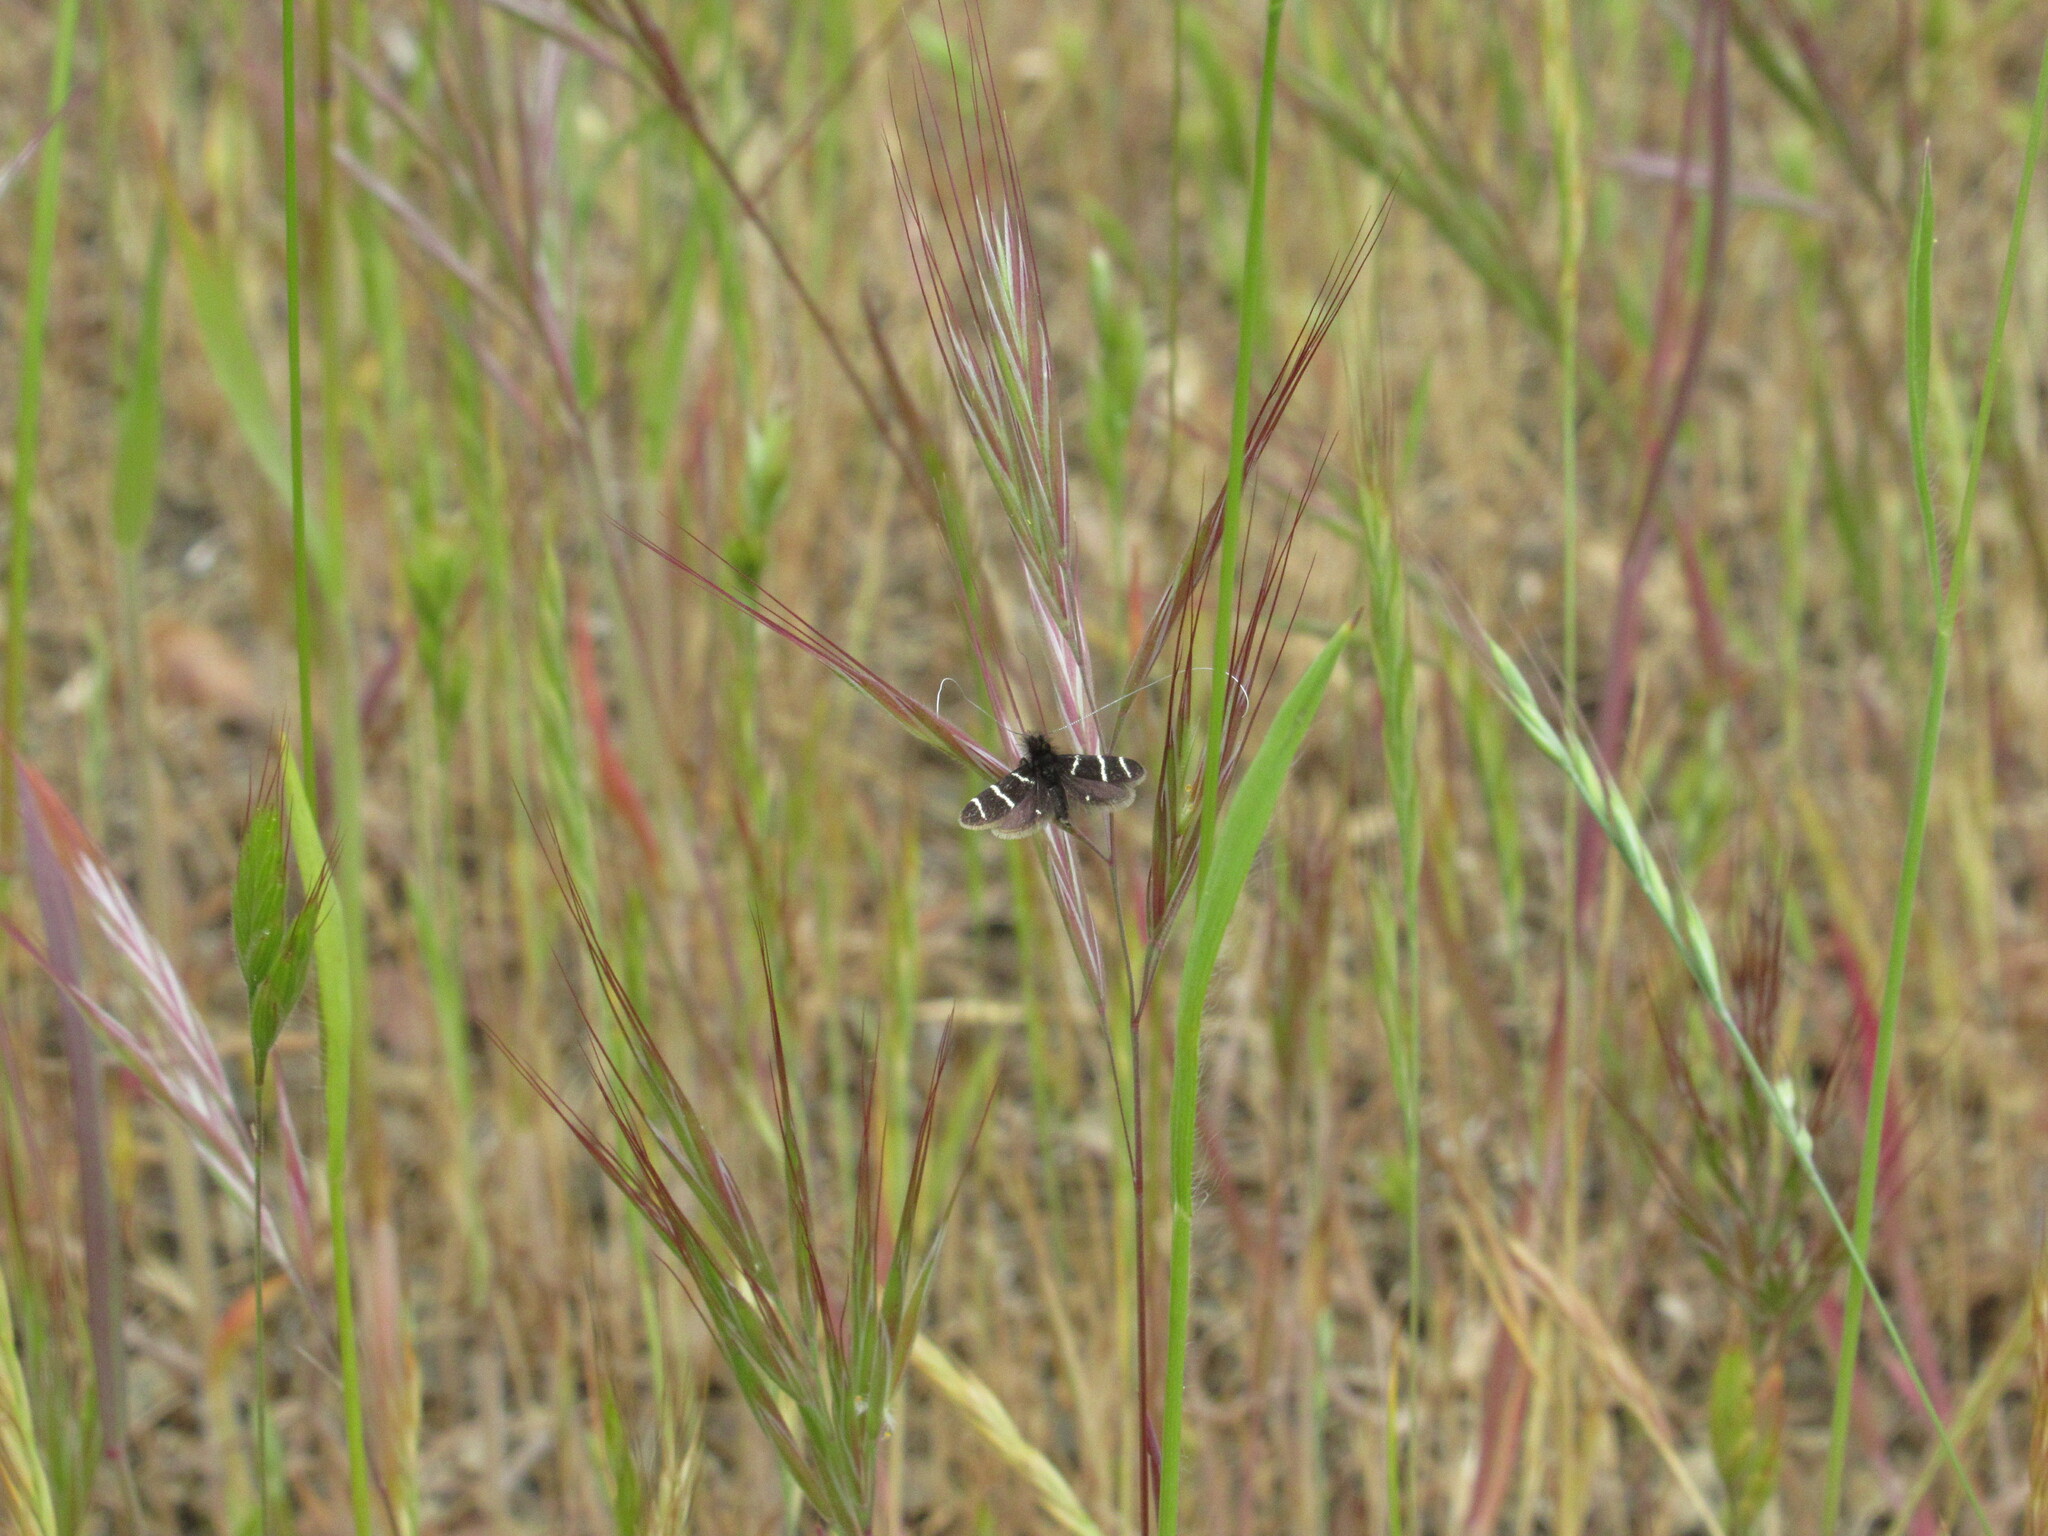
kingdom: Animalia
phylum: Arthropoda
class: Insecta
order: Lepidoptera
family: Adelidae
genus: Adela
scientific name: Adela trigrapha
